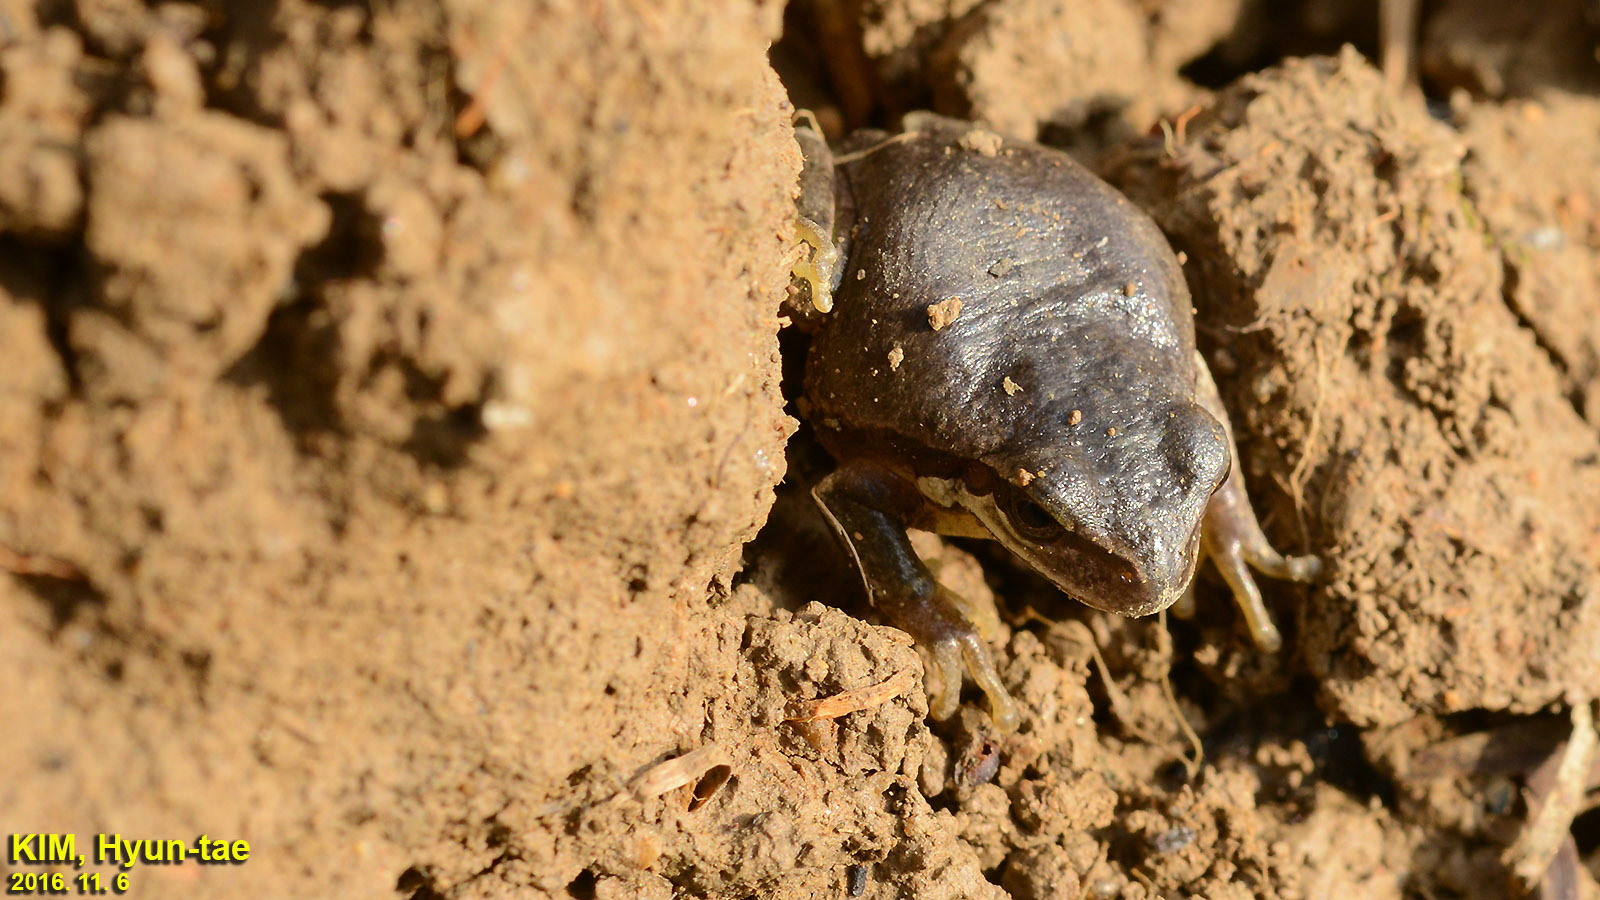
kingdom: Animalia
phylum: Chordata
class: Amphibia
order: Anura
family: Hylidae
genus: Dryophytes
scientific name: Dryophytes immaculatus
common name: North china treefrog
